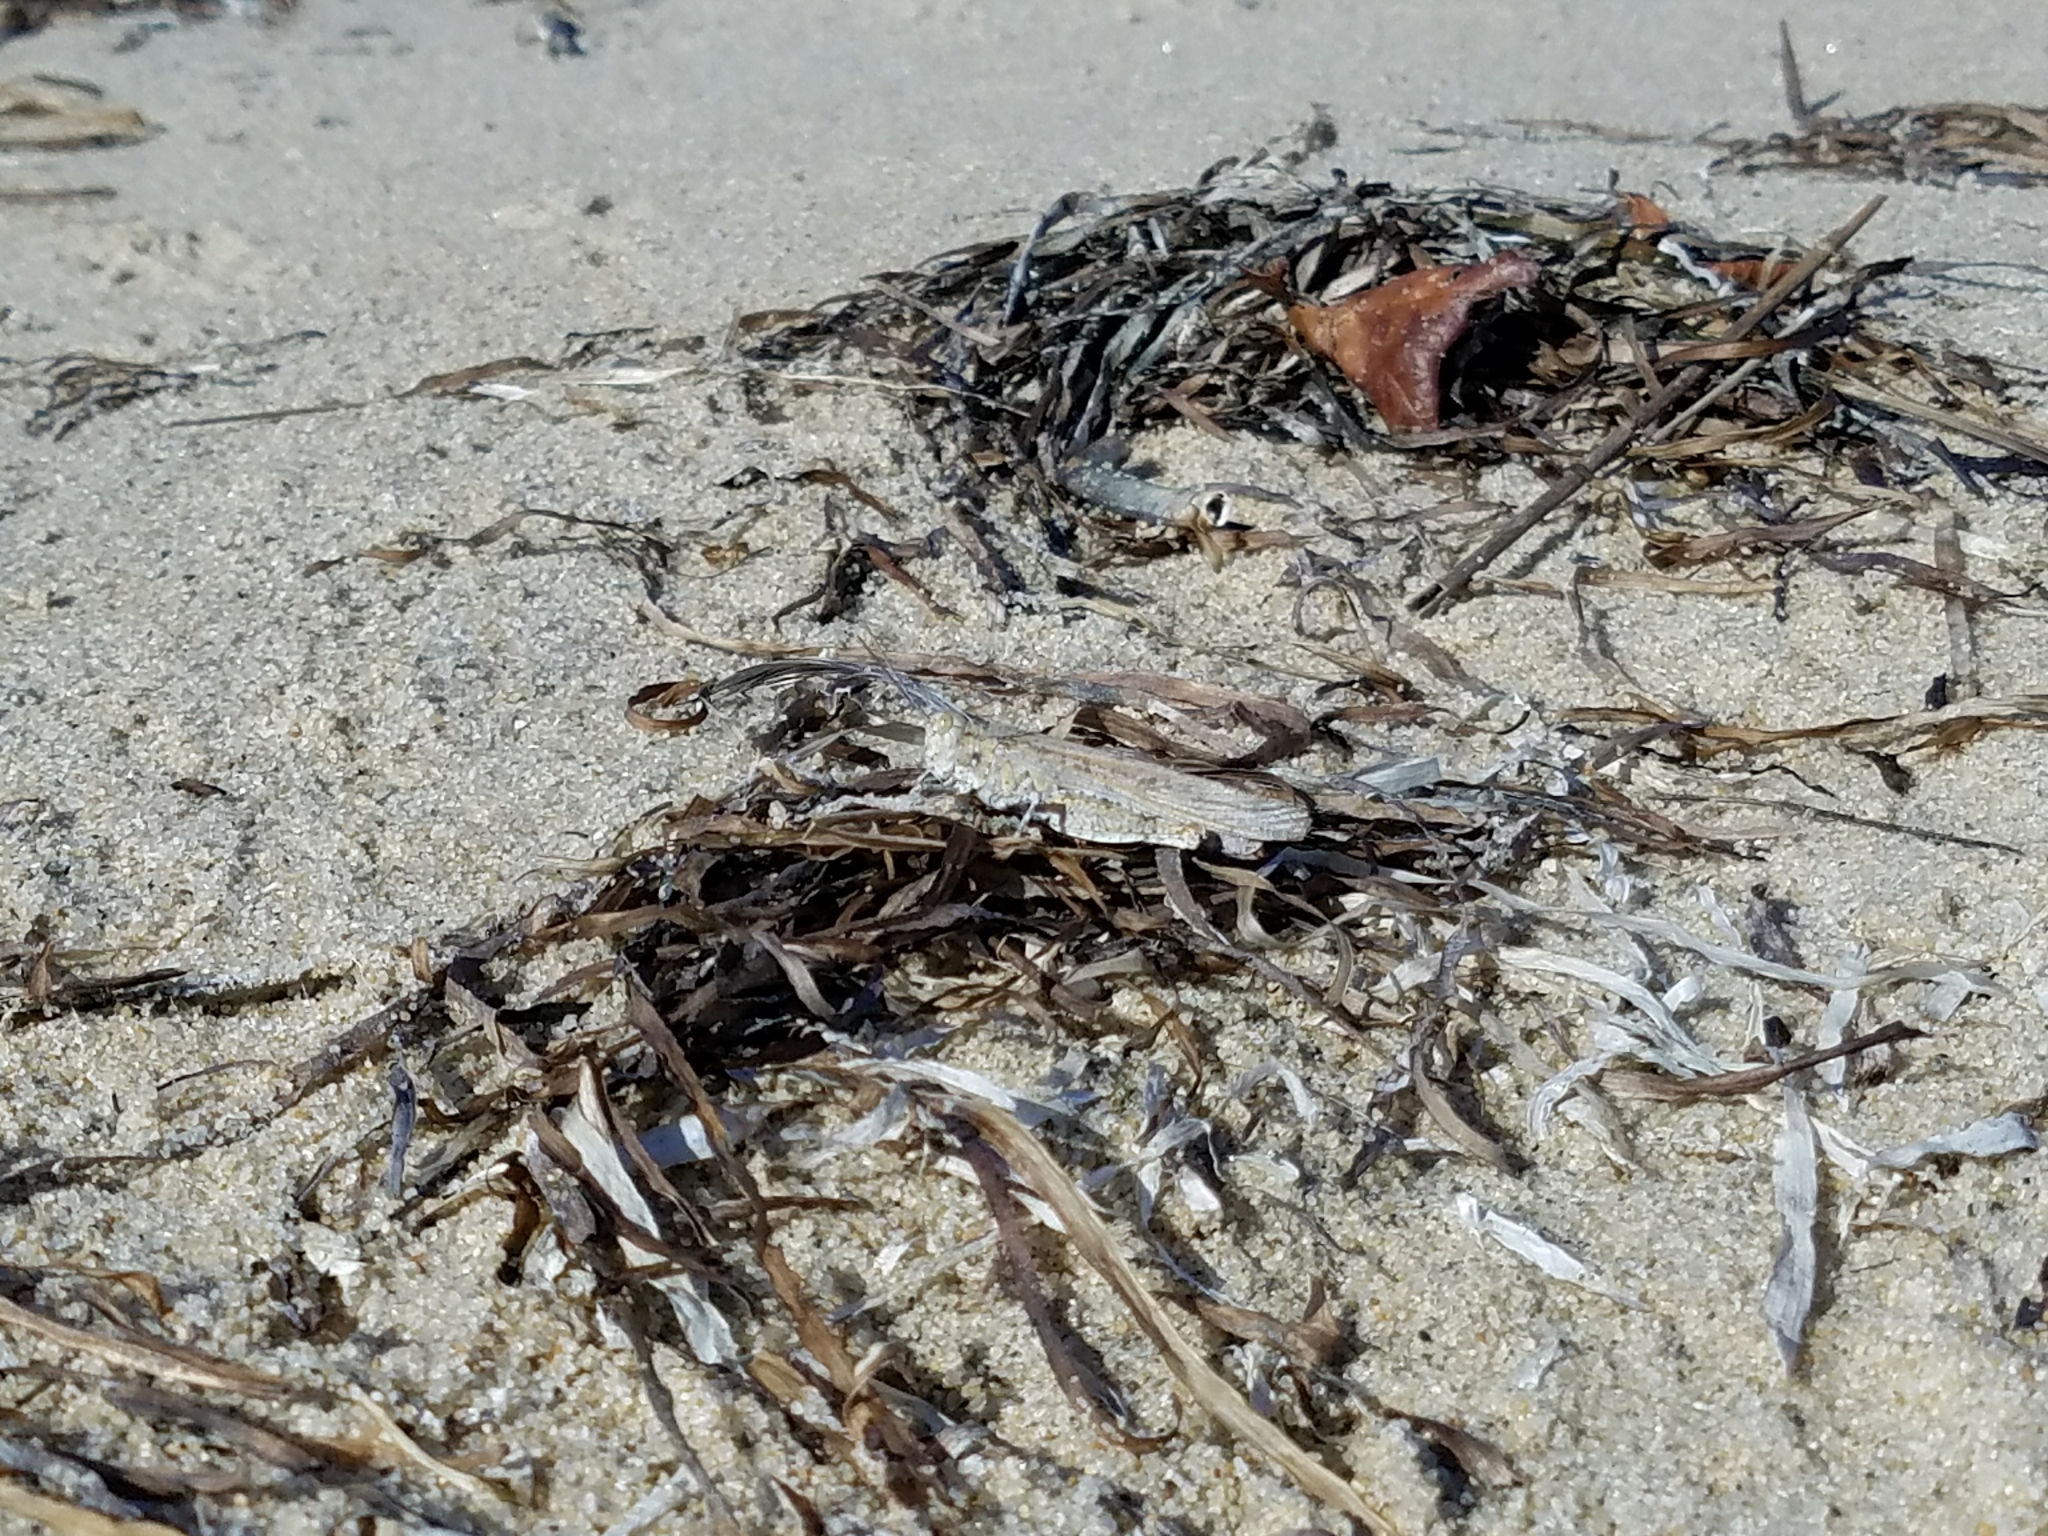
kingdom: Animalia
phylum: Arthropoda
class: Insecta
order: Orthoptera
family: Acrididae
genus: Trimerotropis
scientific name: Trimerotropis maritima
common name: Seaside locust
